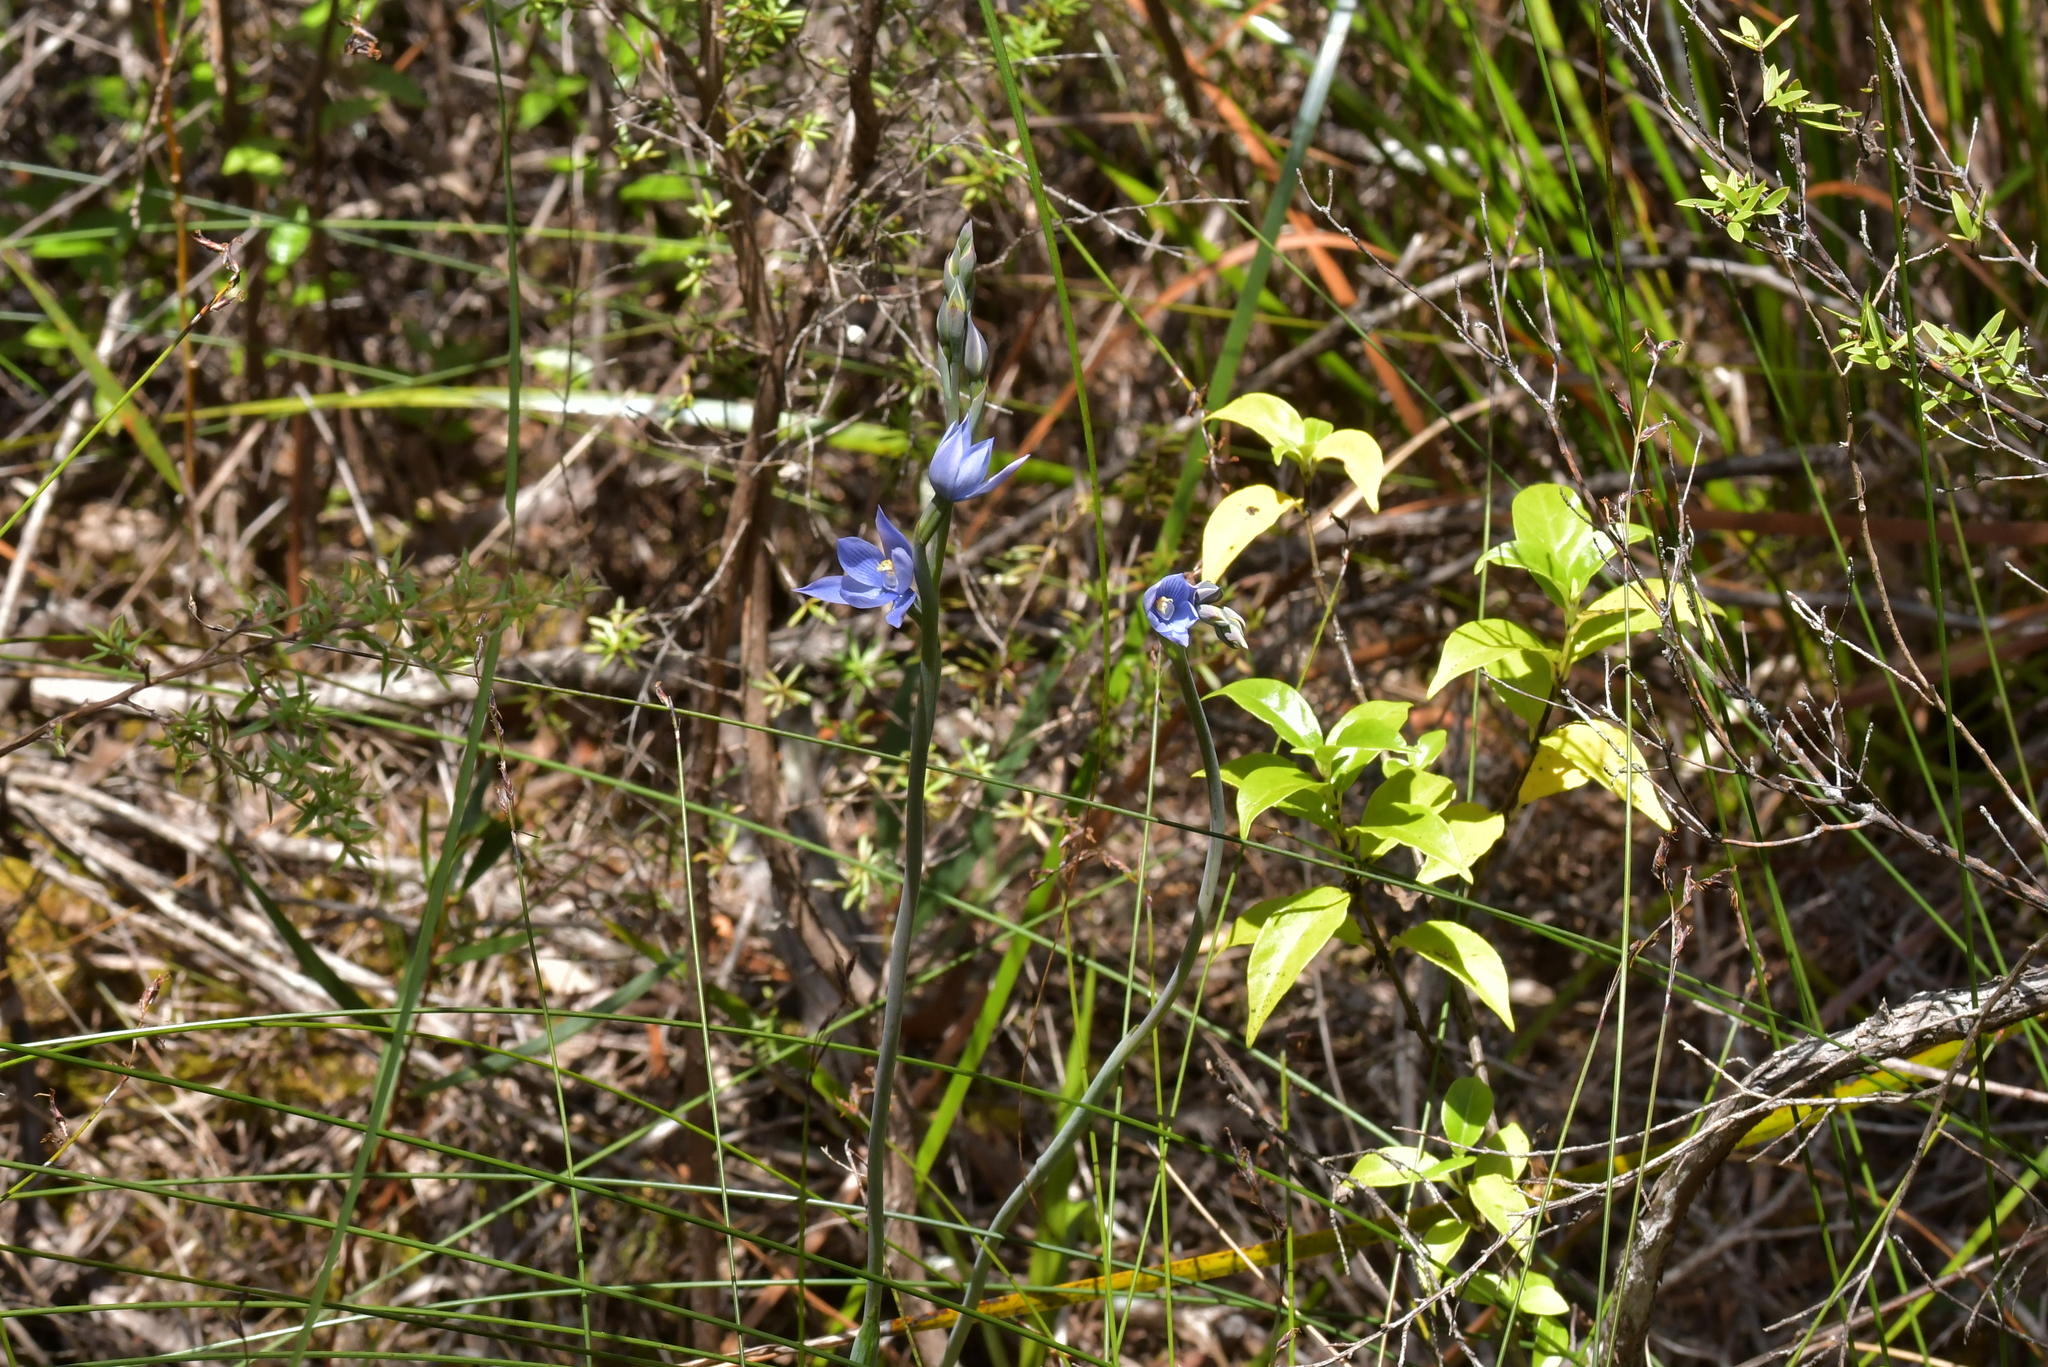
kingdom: Plantae
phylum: Tracheophyta
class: Liliopsida
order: Asparagales
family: Orchidaceae
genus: Thelymitra
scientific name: Thelymitra pulchella
